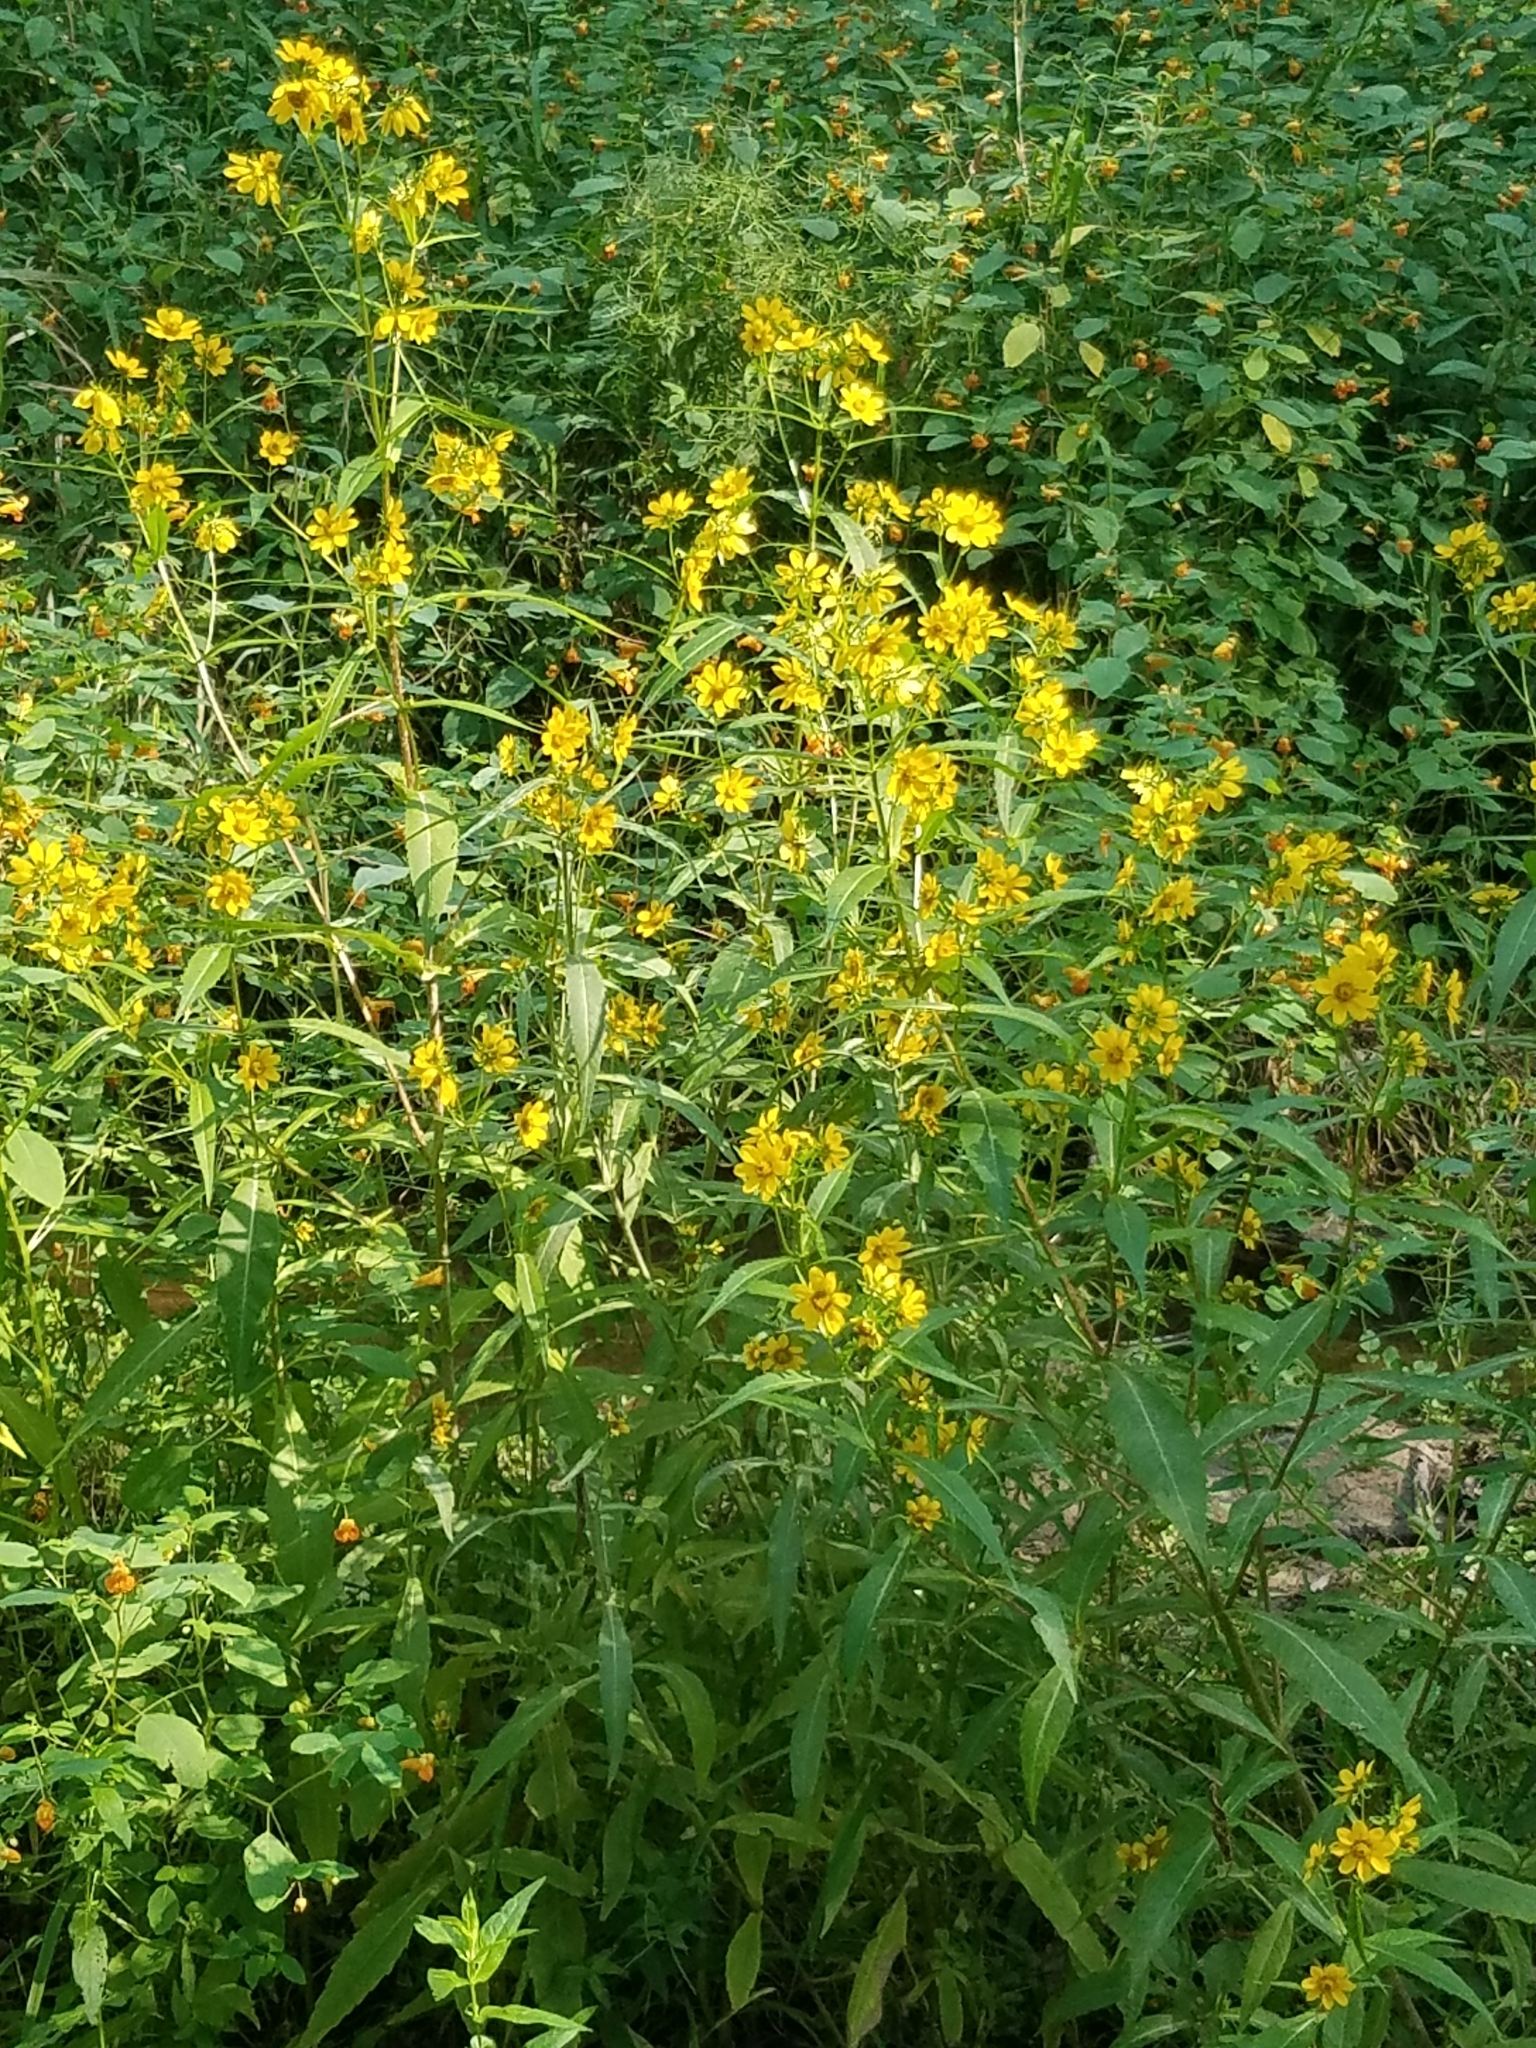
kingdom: Plantae
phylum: Tracheophyta
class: Magnoliopsida
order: Asterales
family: Asteraceae
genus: Bidens
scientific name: Bidens laevis
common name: Larger bur-marigold
